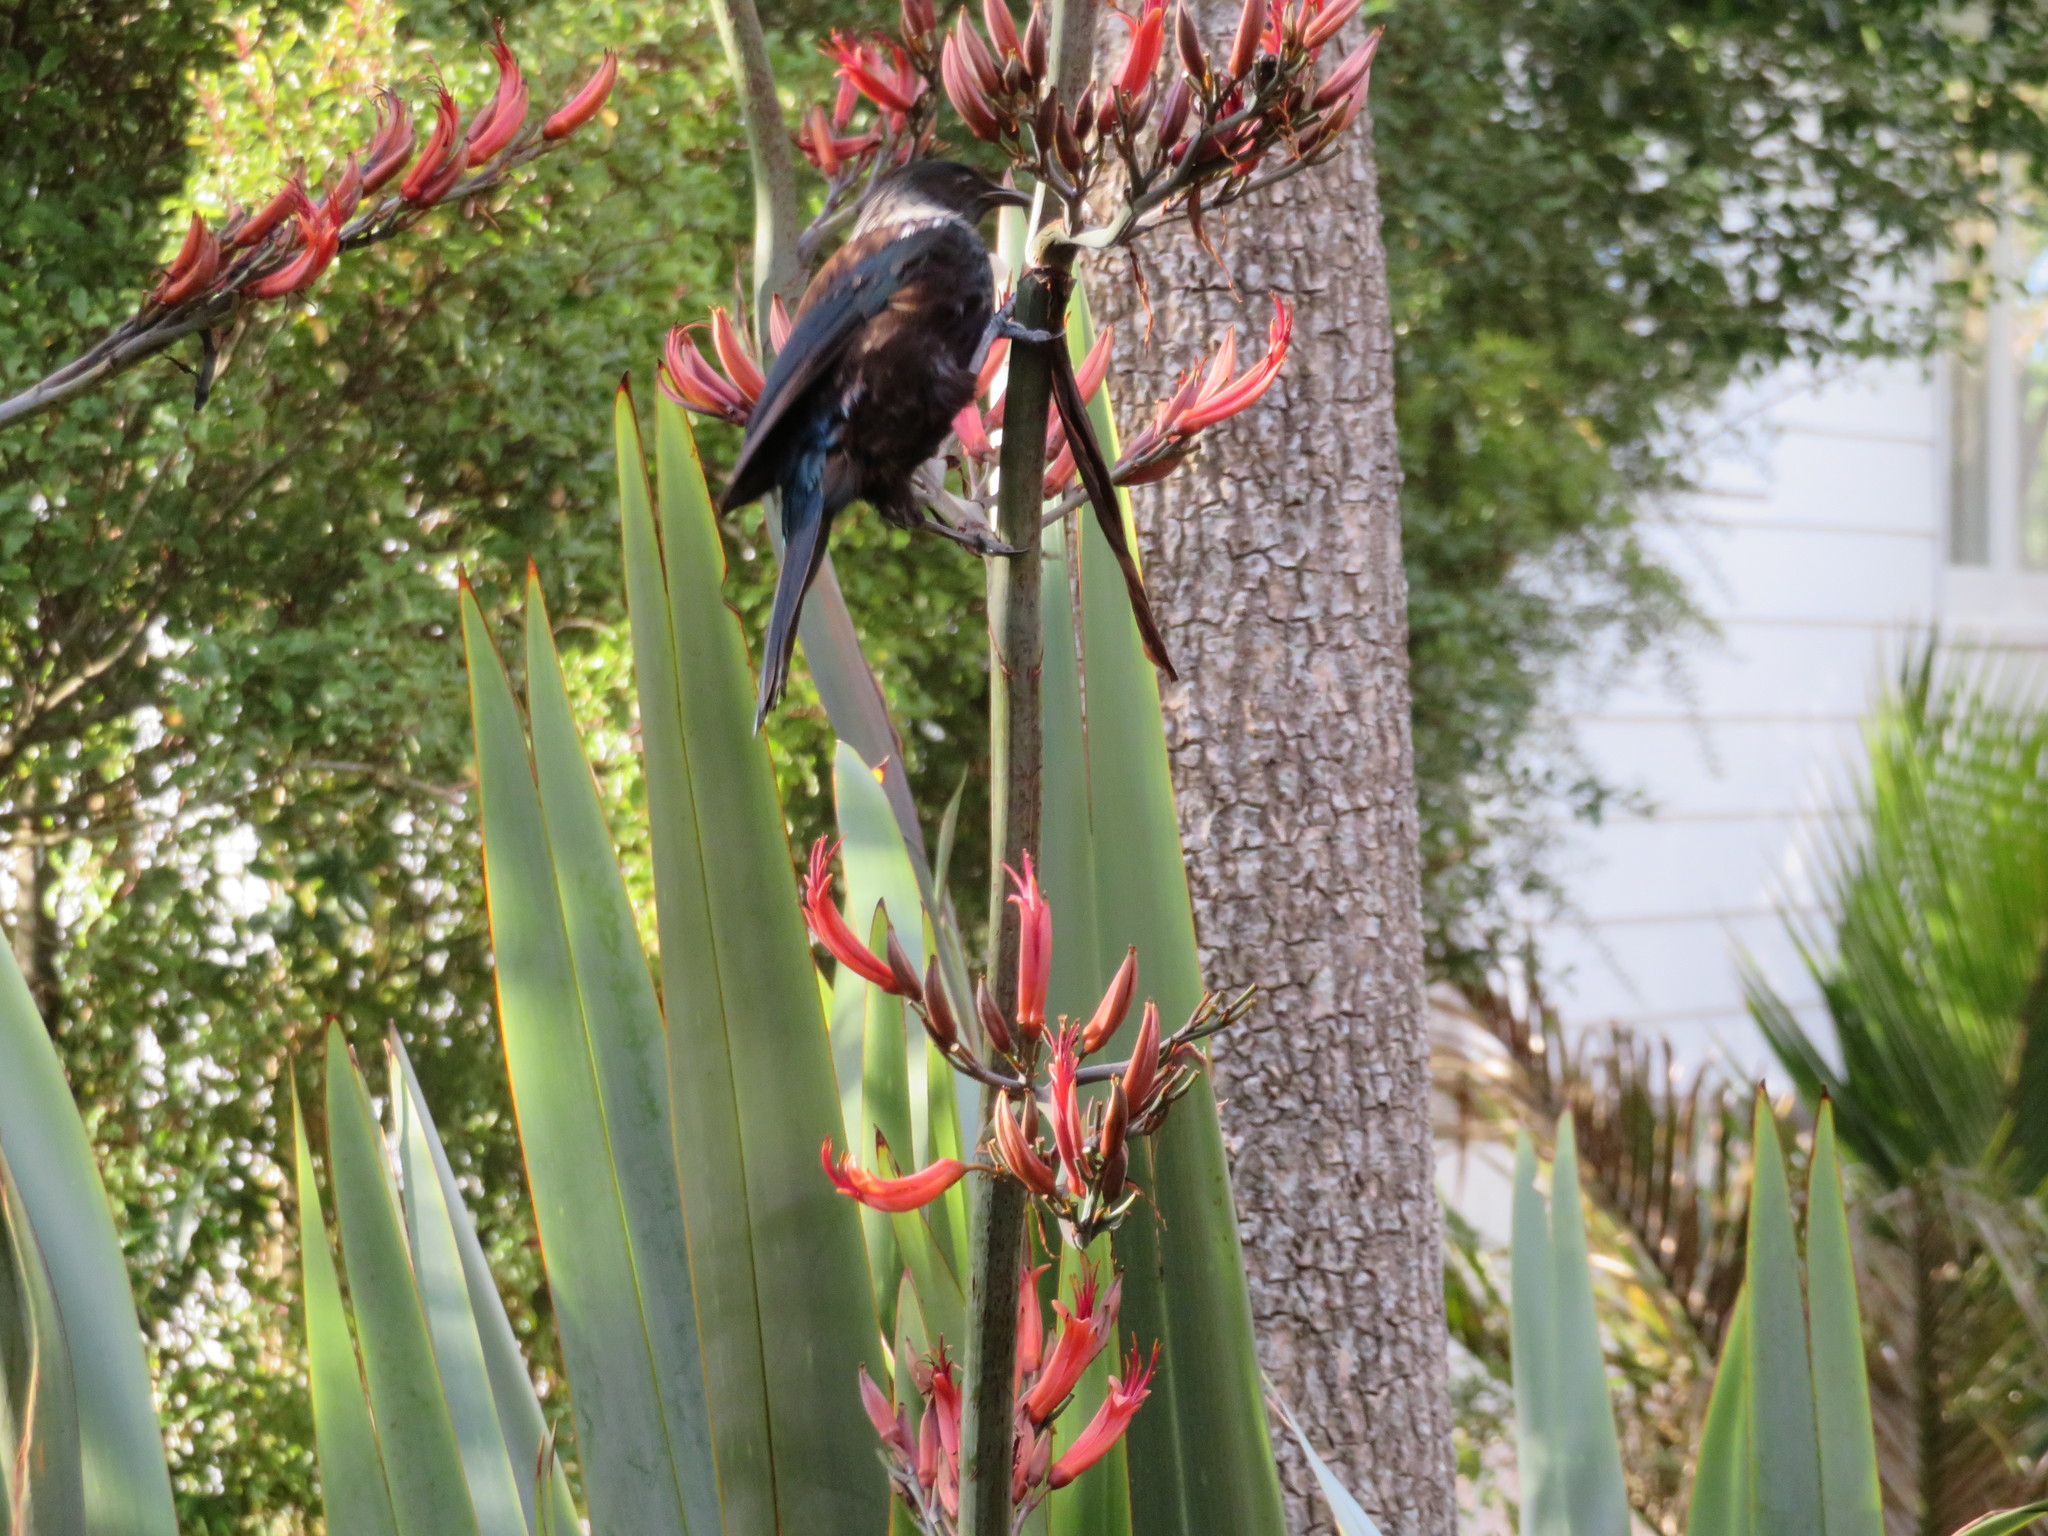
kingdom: Animalia
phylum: Chordata
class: Aves
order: Passeriformes
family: Meliphagidae
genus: Prosthemadera
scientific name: Prosthemadera novaeseelandiae
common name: Tui
